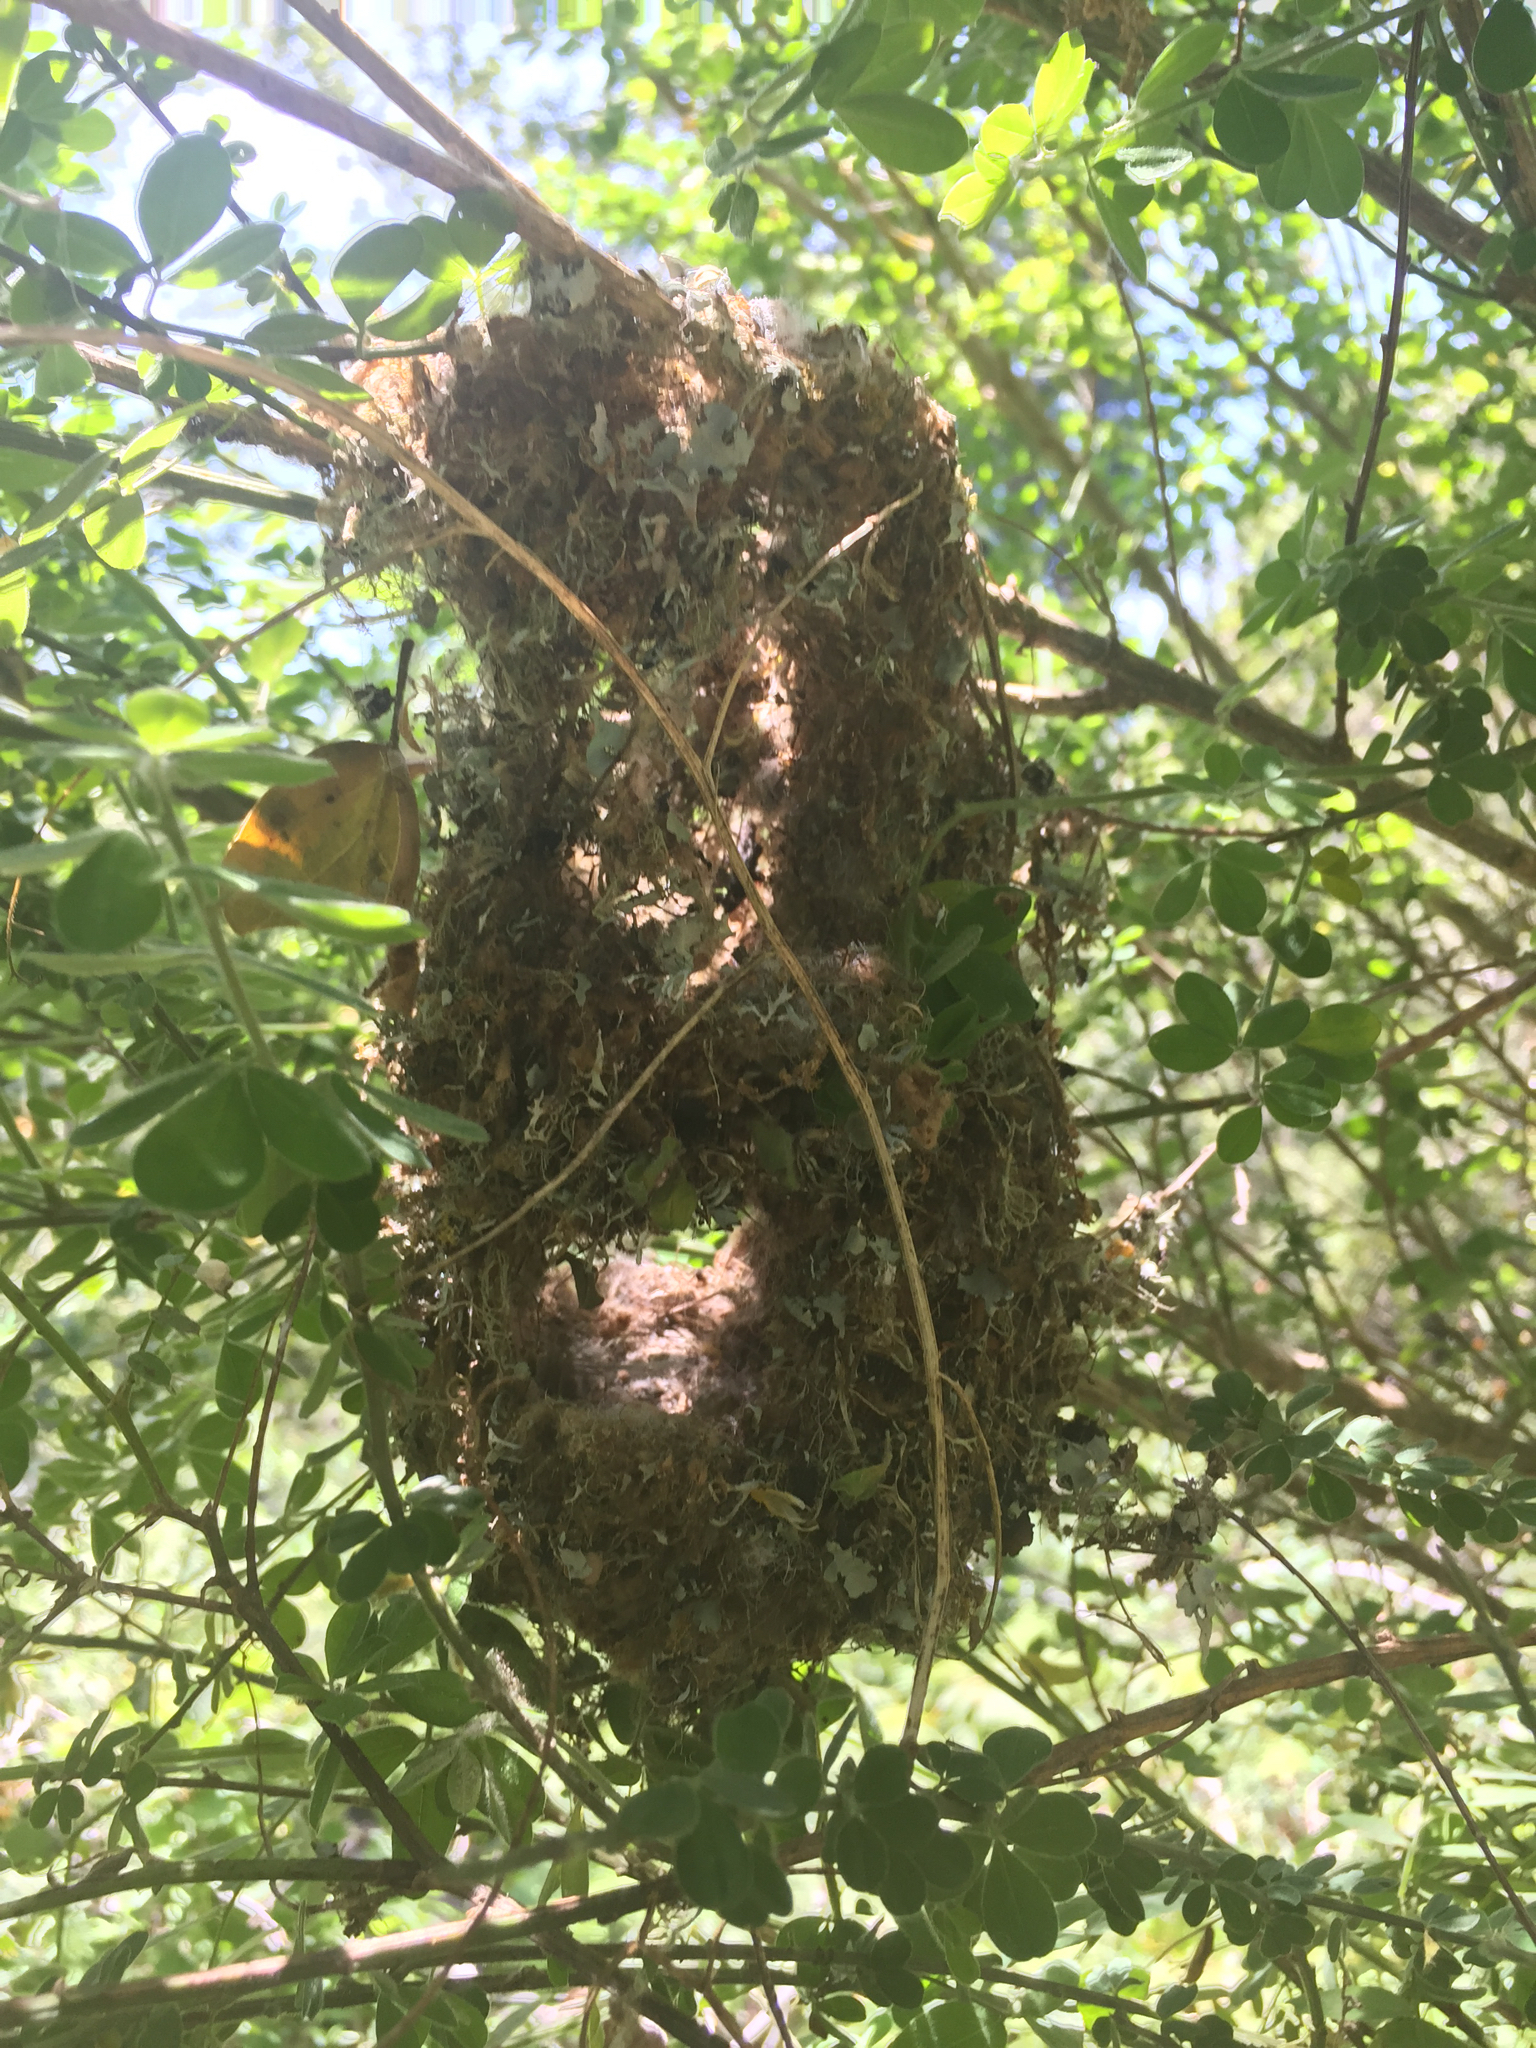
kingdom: Animalia
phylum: Chordata
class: Aves
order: Passeriformes
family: Aegithalidae
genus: Psaltriparus
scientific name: Psaltriparus minimus
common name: American bushtit
